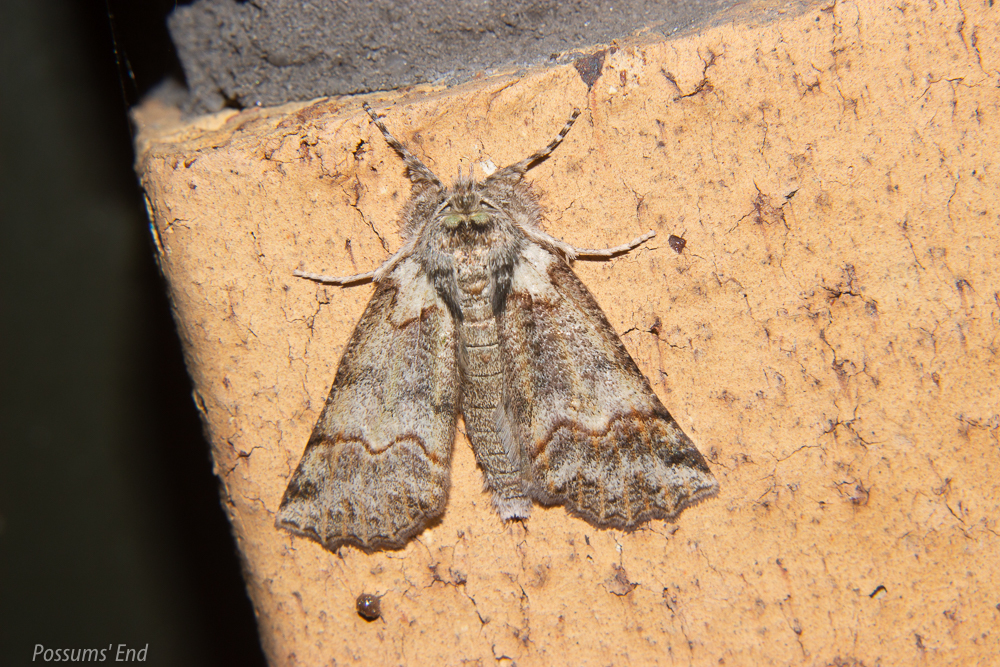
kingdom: Animalia
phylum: Arthropoda
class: Insecta
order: Lepidoptera
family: Geometridae
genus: Declana
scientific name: Declana floccosa
